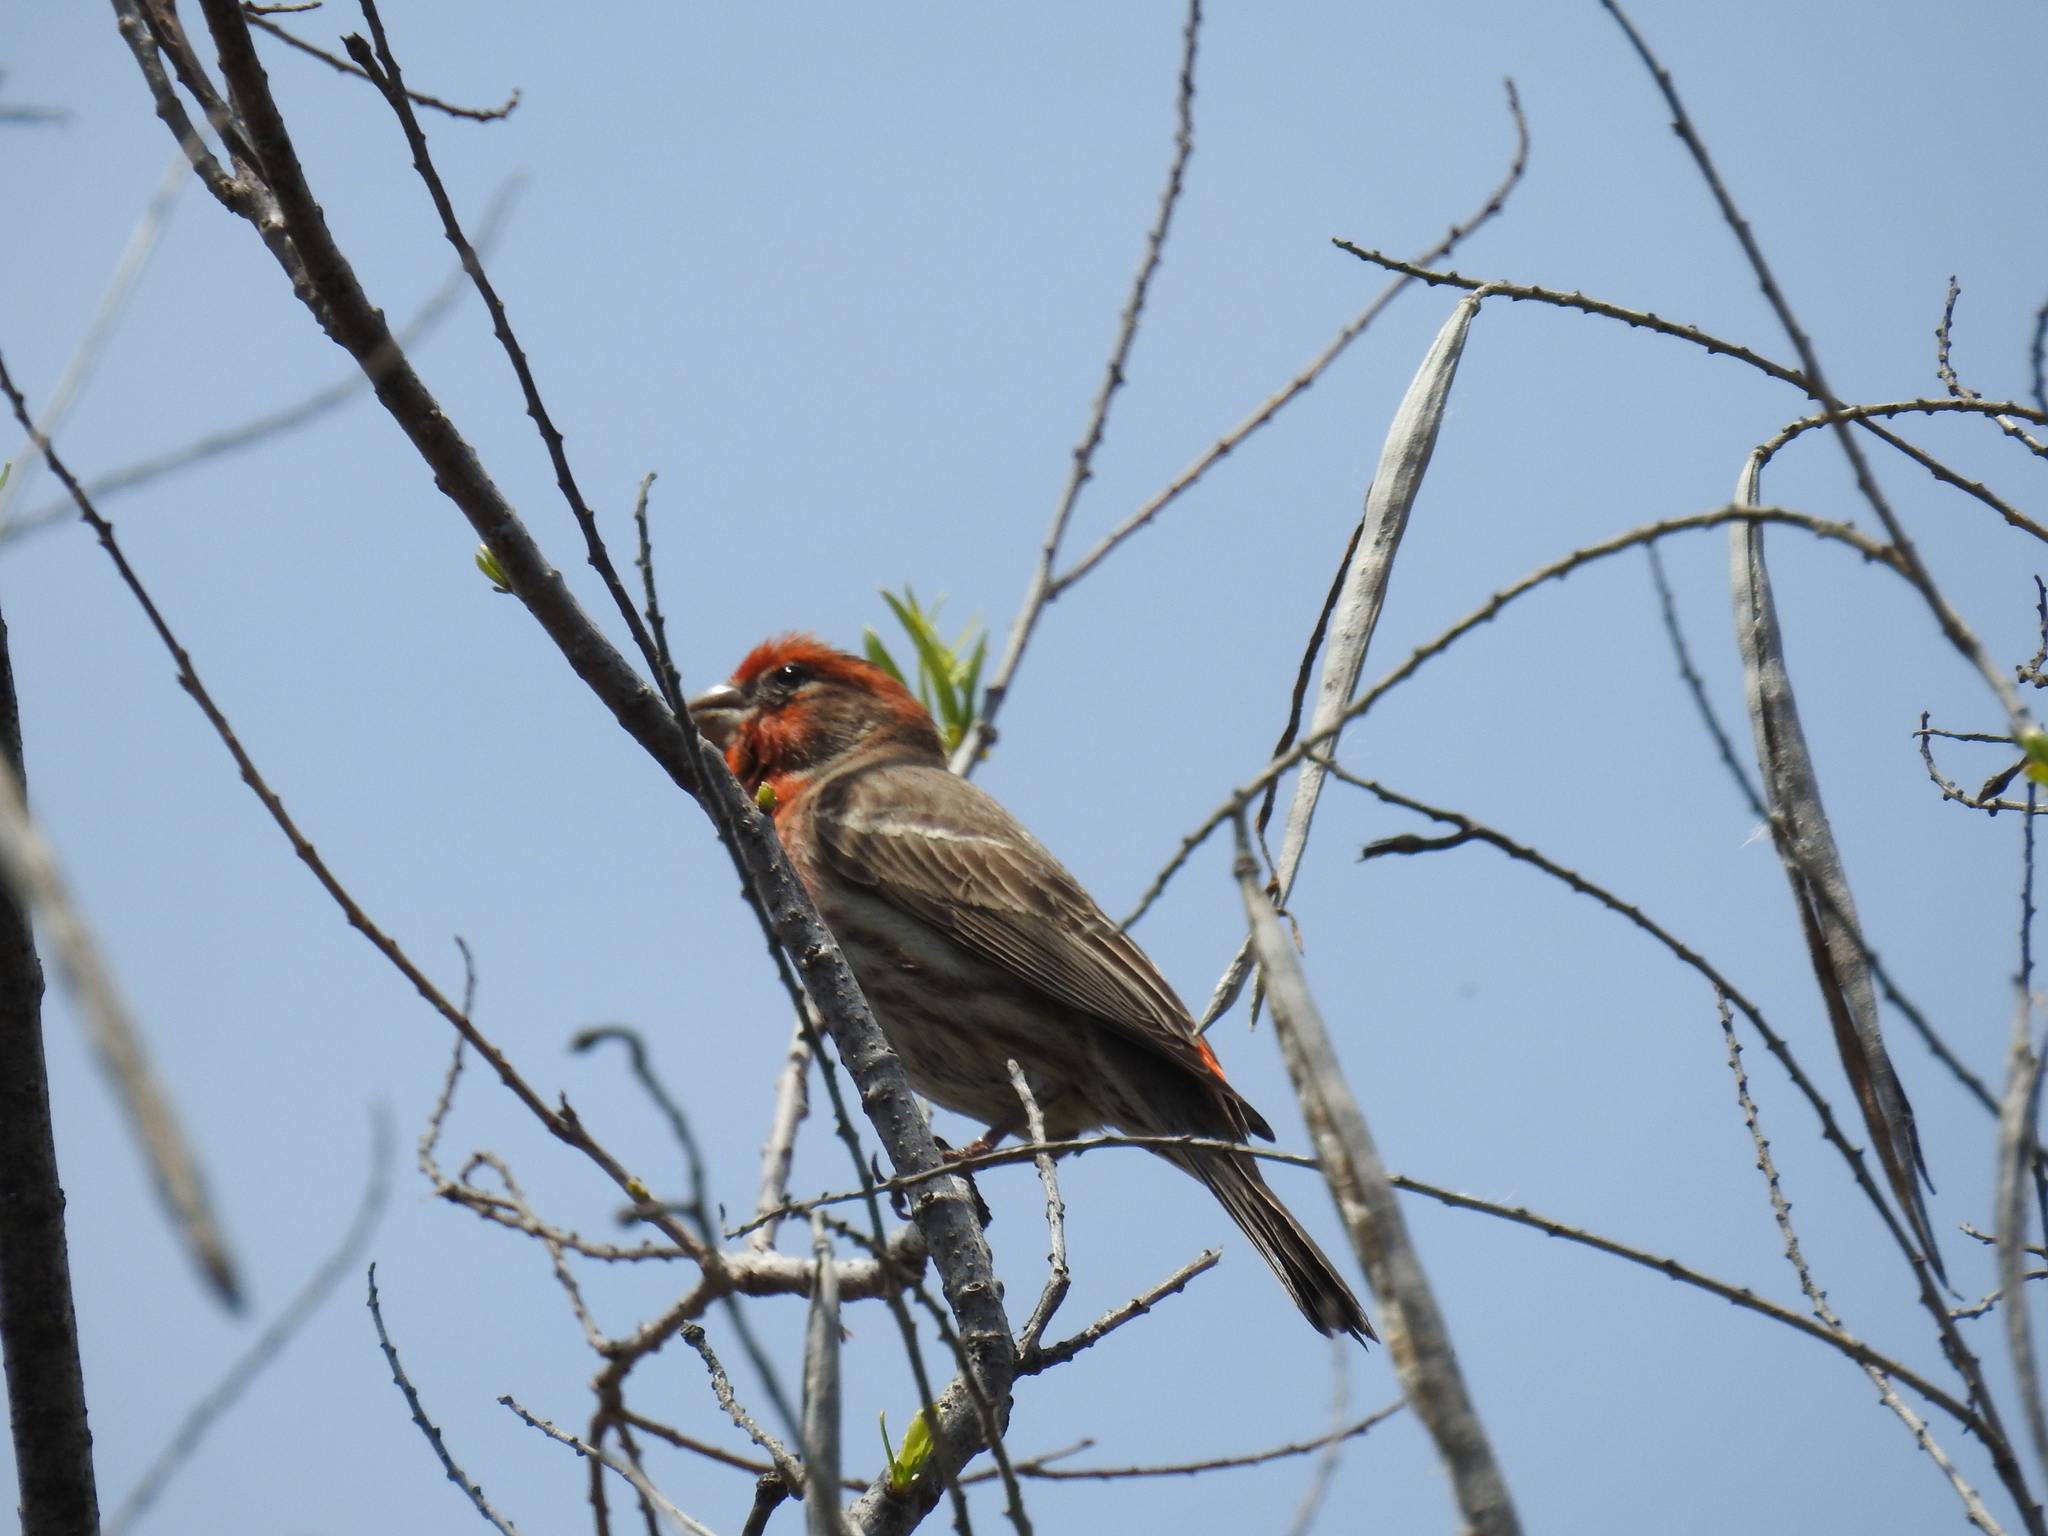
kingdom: Animalia
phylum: Chordata
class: Aves
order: Passeriformes
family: Fringillidae
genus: Haemorhous
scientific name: Haemorhous mexicanus
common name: House finch
